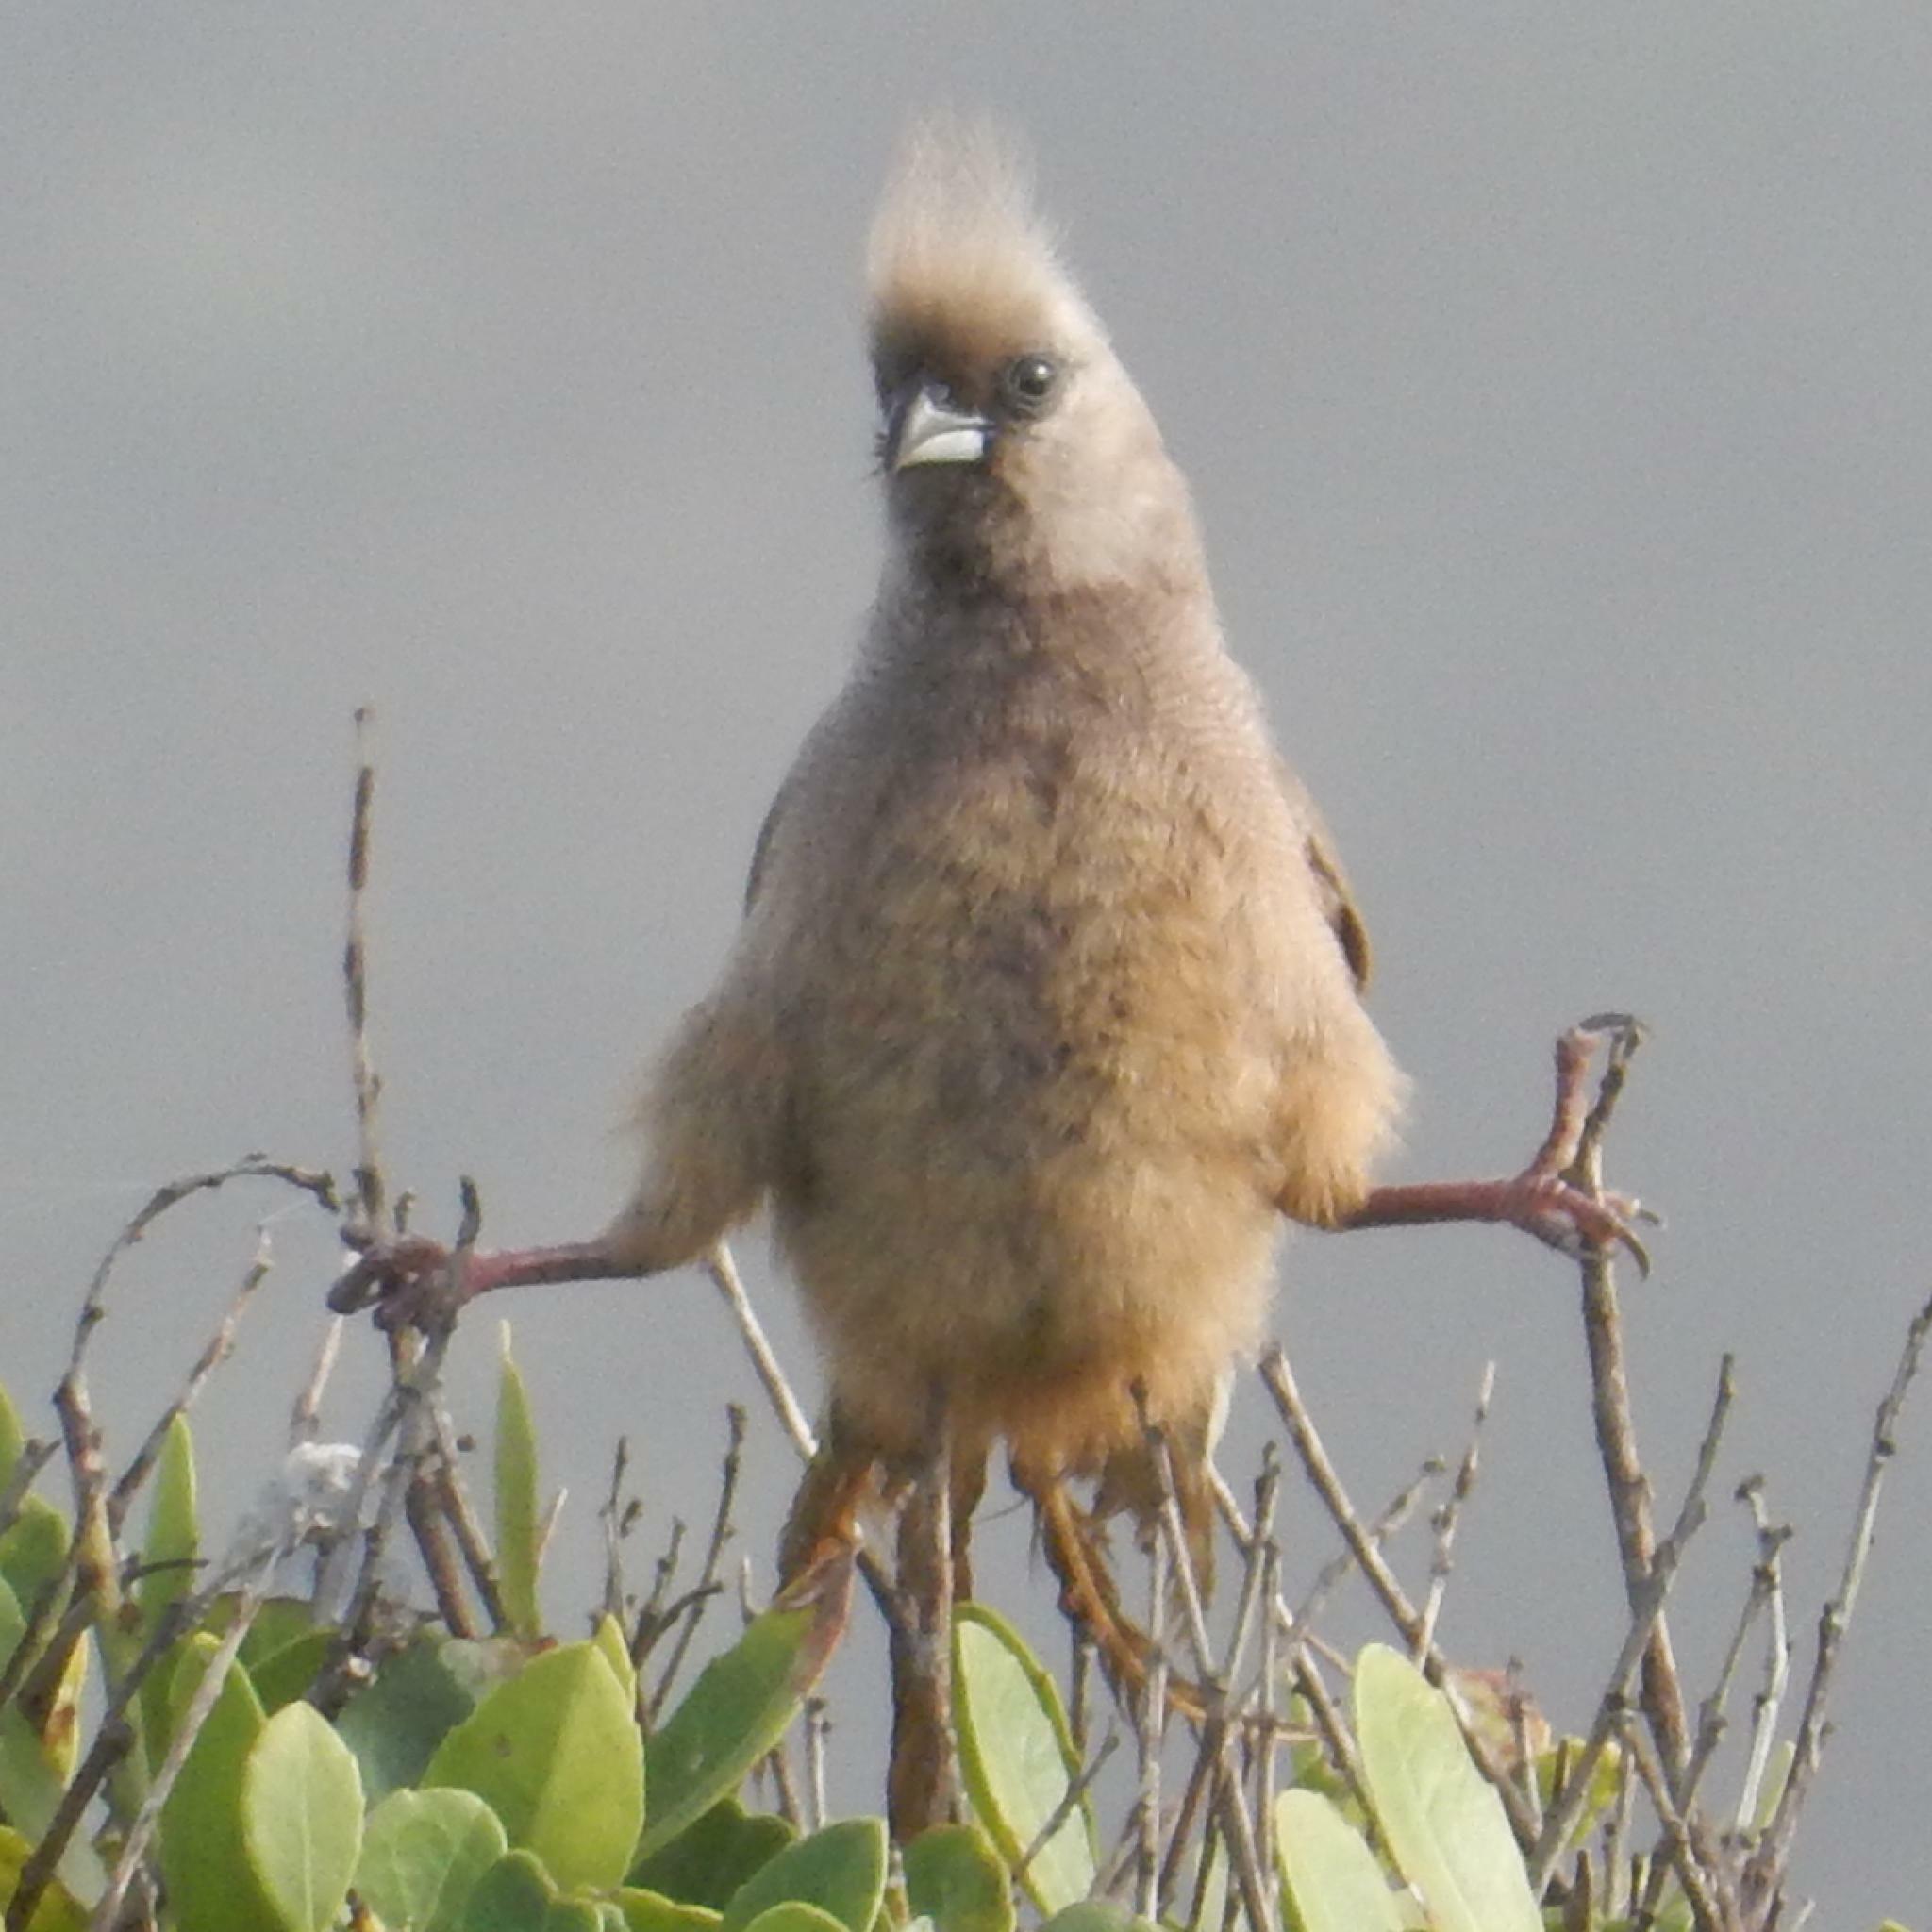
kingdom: Animalia
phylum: Chordata
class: Aves
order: Coliiformes
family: Coliidae
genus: Colius
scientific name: Colius striatus
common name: Speckled mousebird
